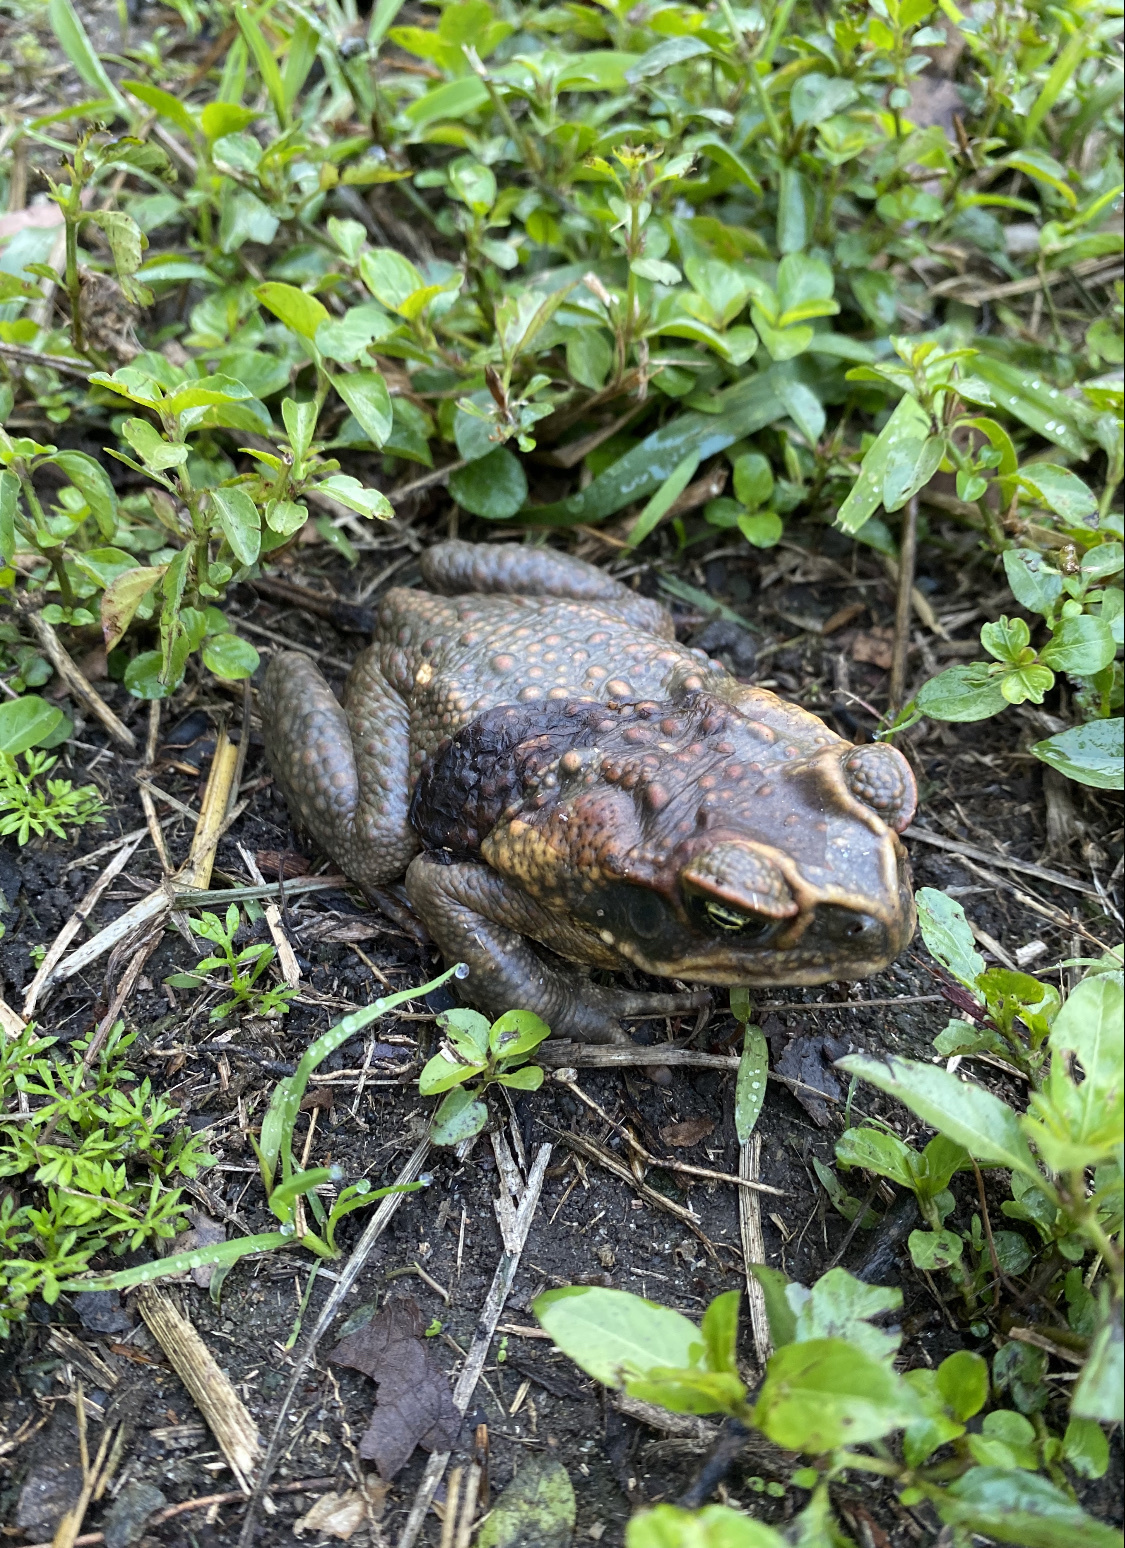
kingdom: Animalia
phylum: Chordata
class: Amphibia
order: Anura
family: Bufonidae
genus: Rhinella
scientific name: Rhinella marina
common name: Cane toad
